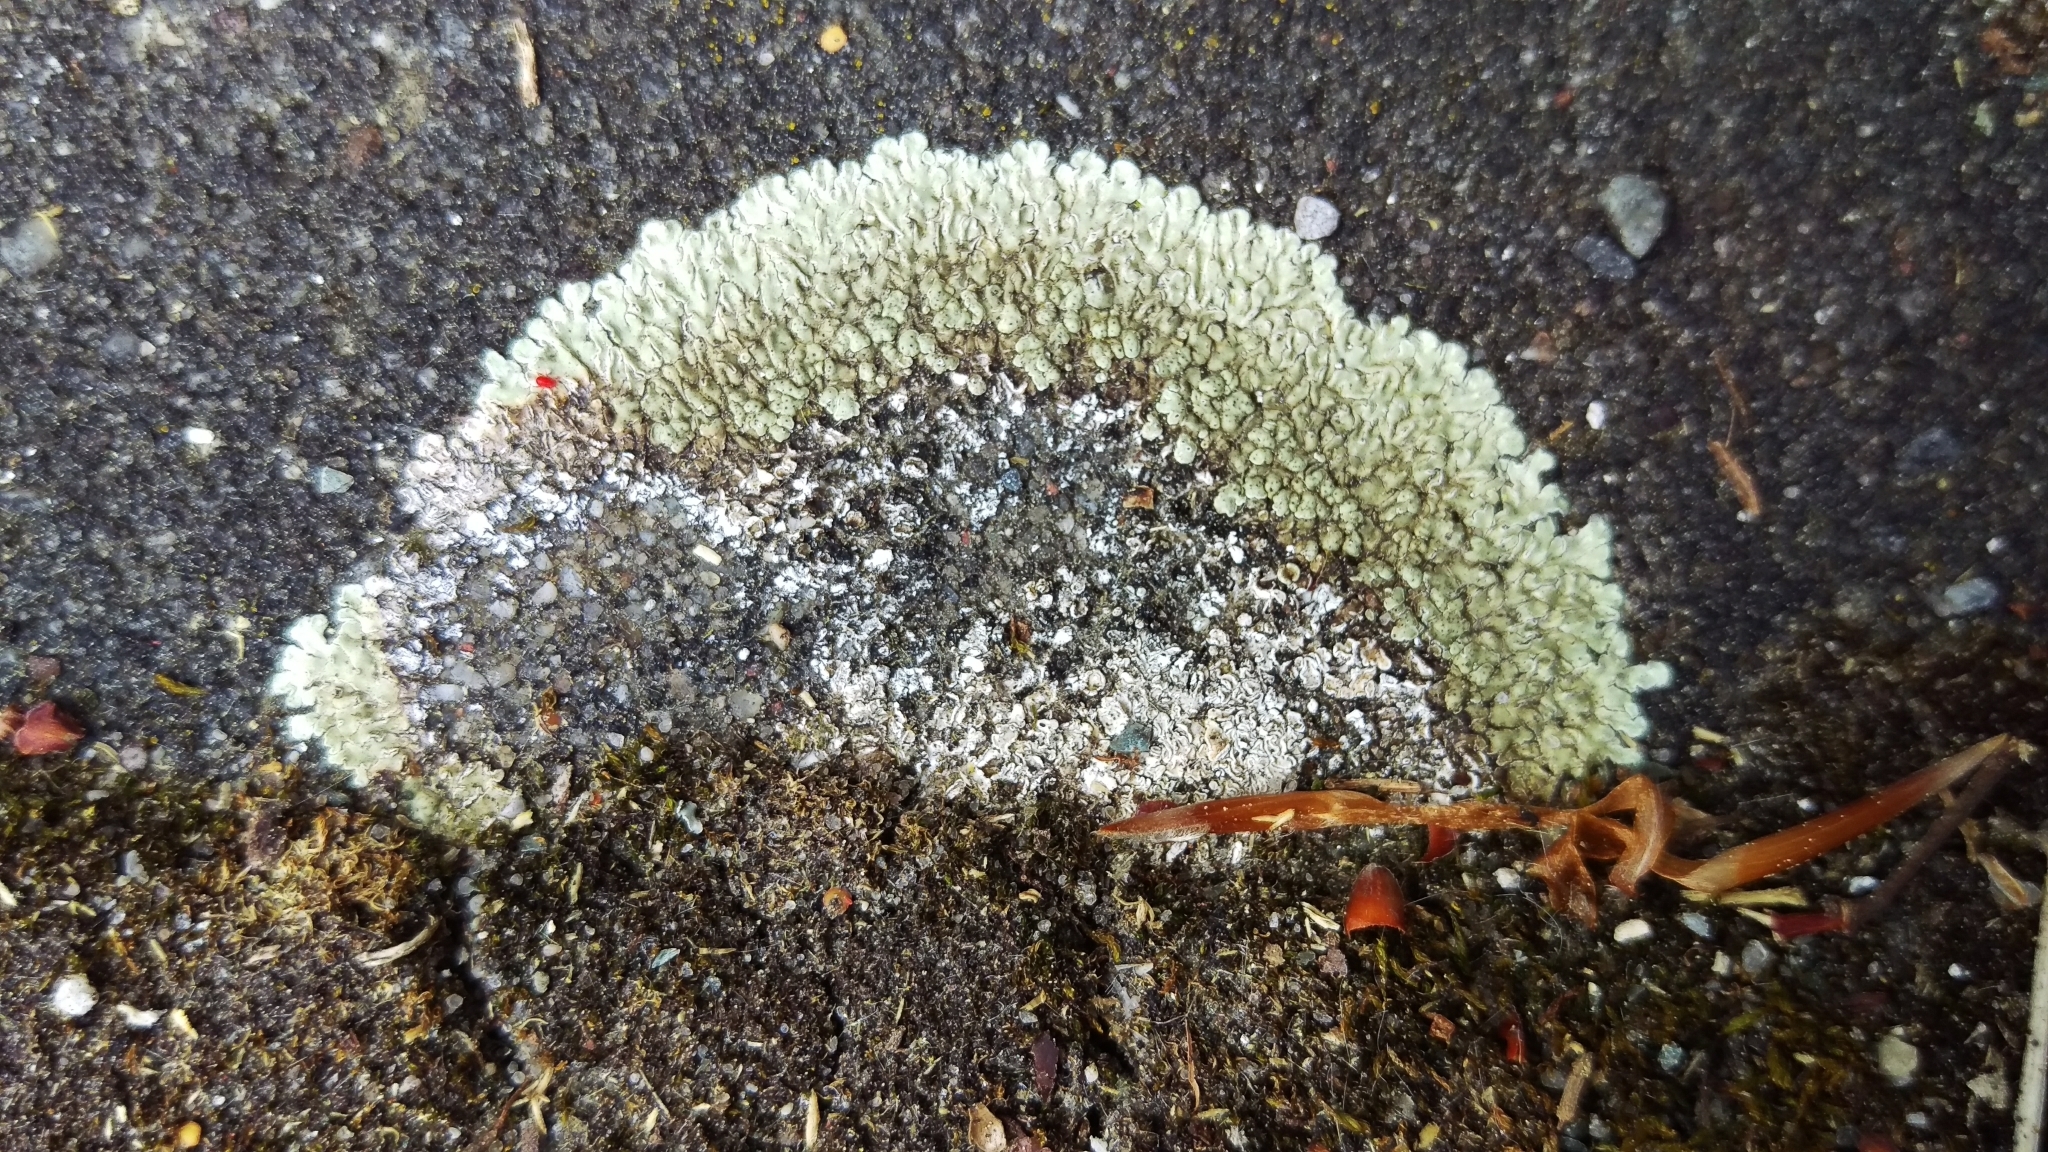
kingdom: Fungi
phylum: Ascomycota
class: Lecanoromycetes
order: Lecanorales
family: Lecanoraceae
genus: Protoparmeliopsis
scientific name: Protoparmeliopsis muralis
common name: Stonewall rim lichen
